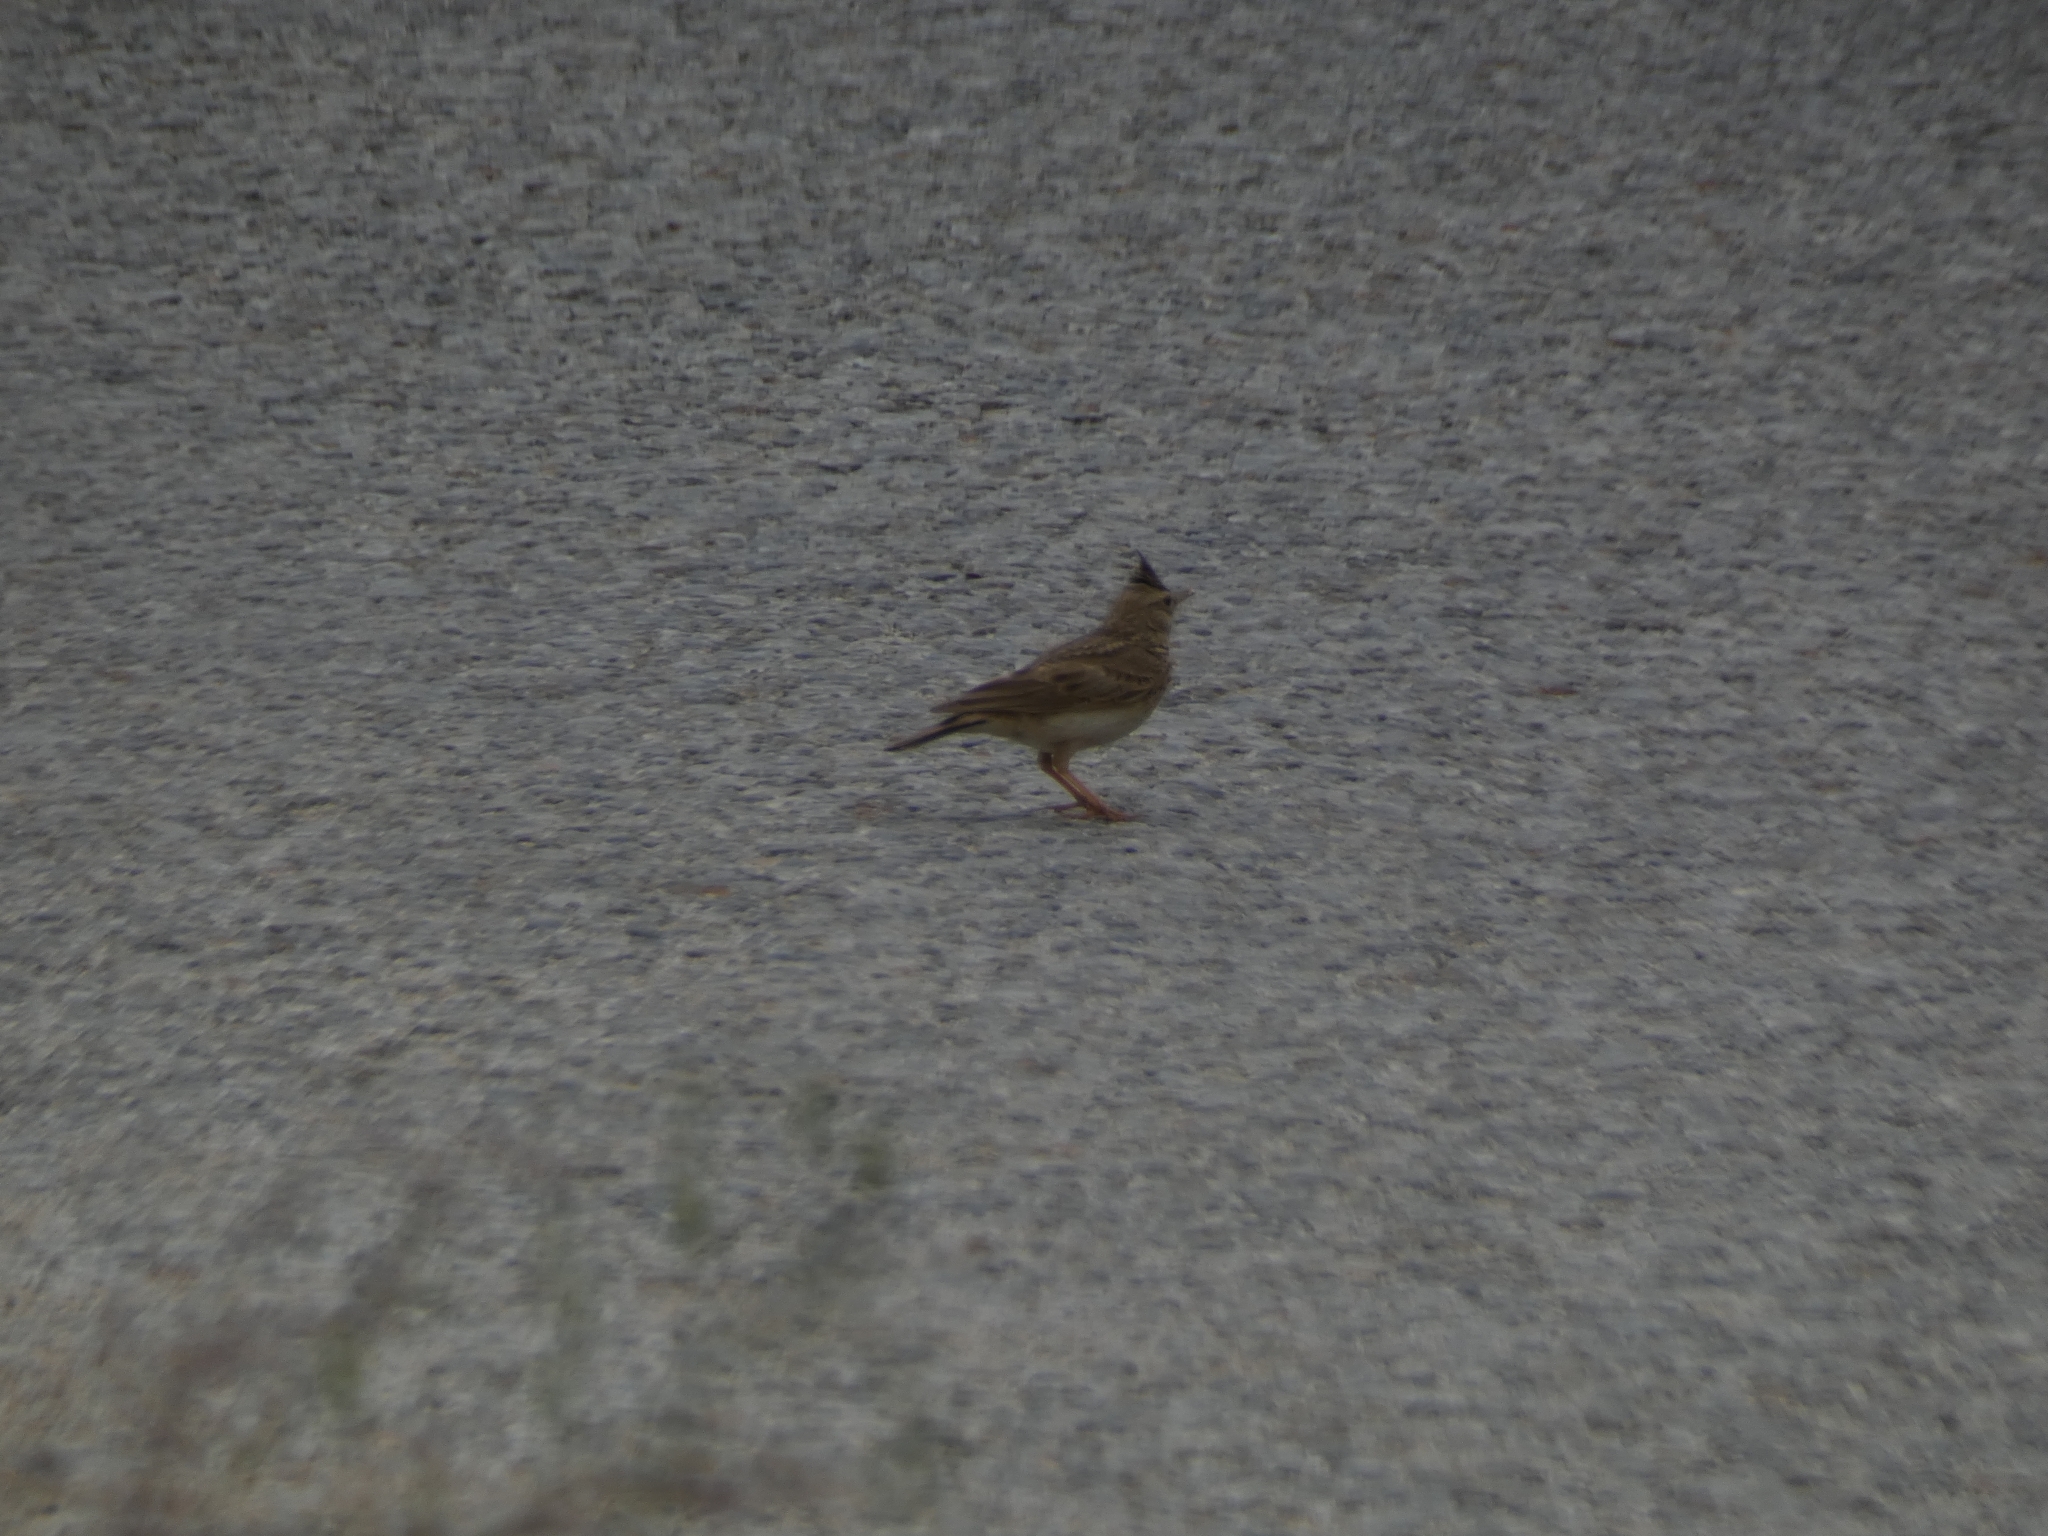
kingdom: Animalia
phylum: Chordata
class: Aves
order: Passeriformes
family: Alaudidae
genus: Galerida
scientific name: Galerida cristata
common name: Crested lark
